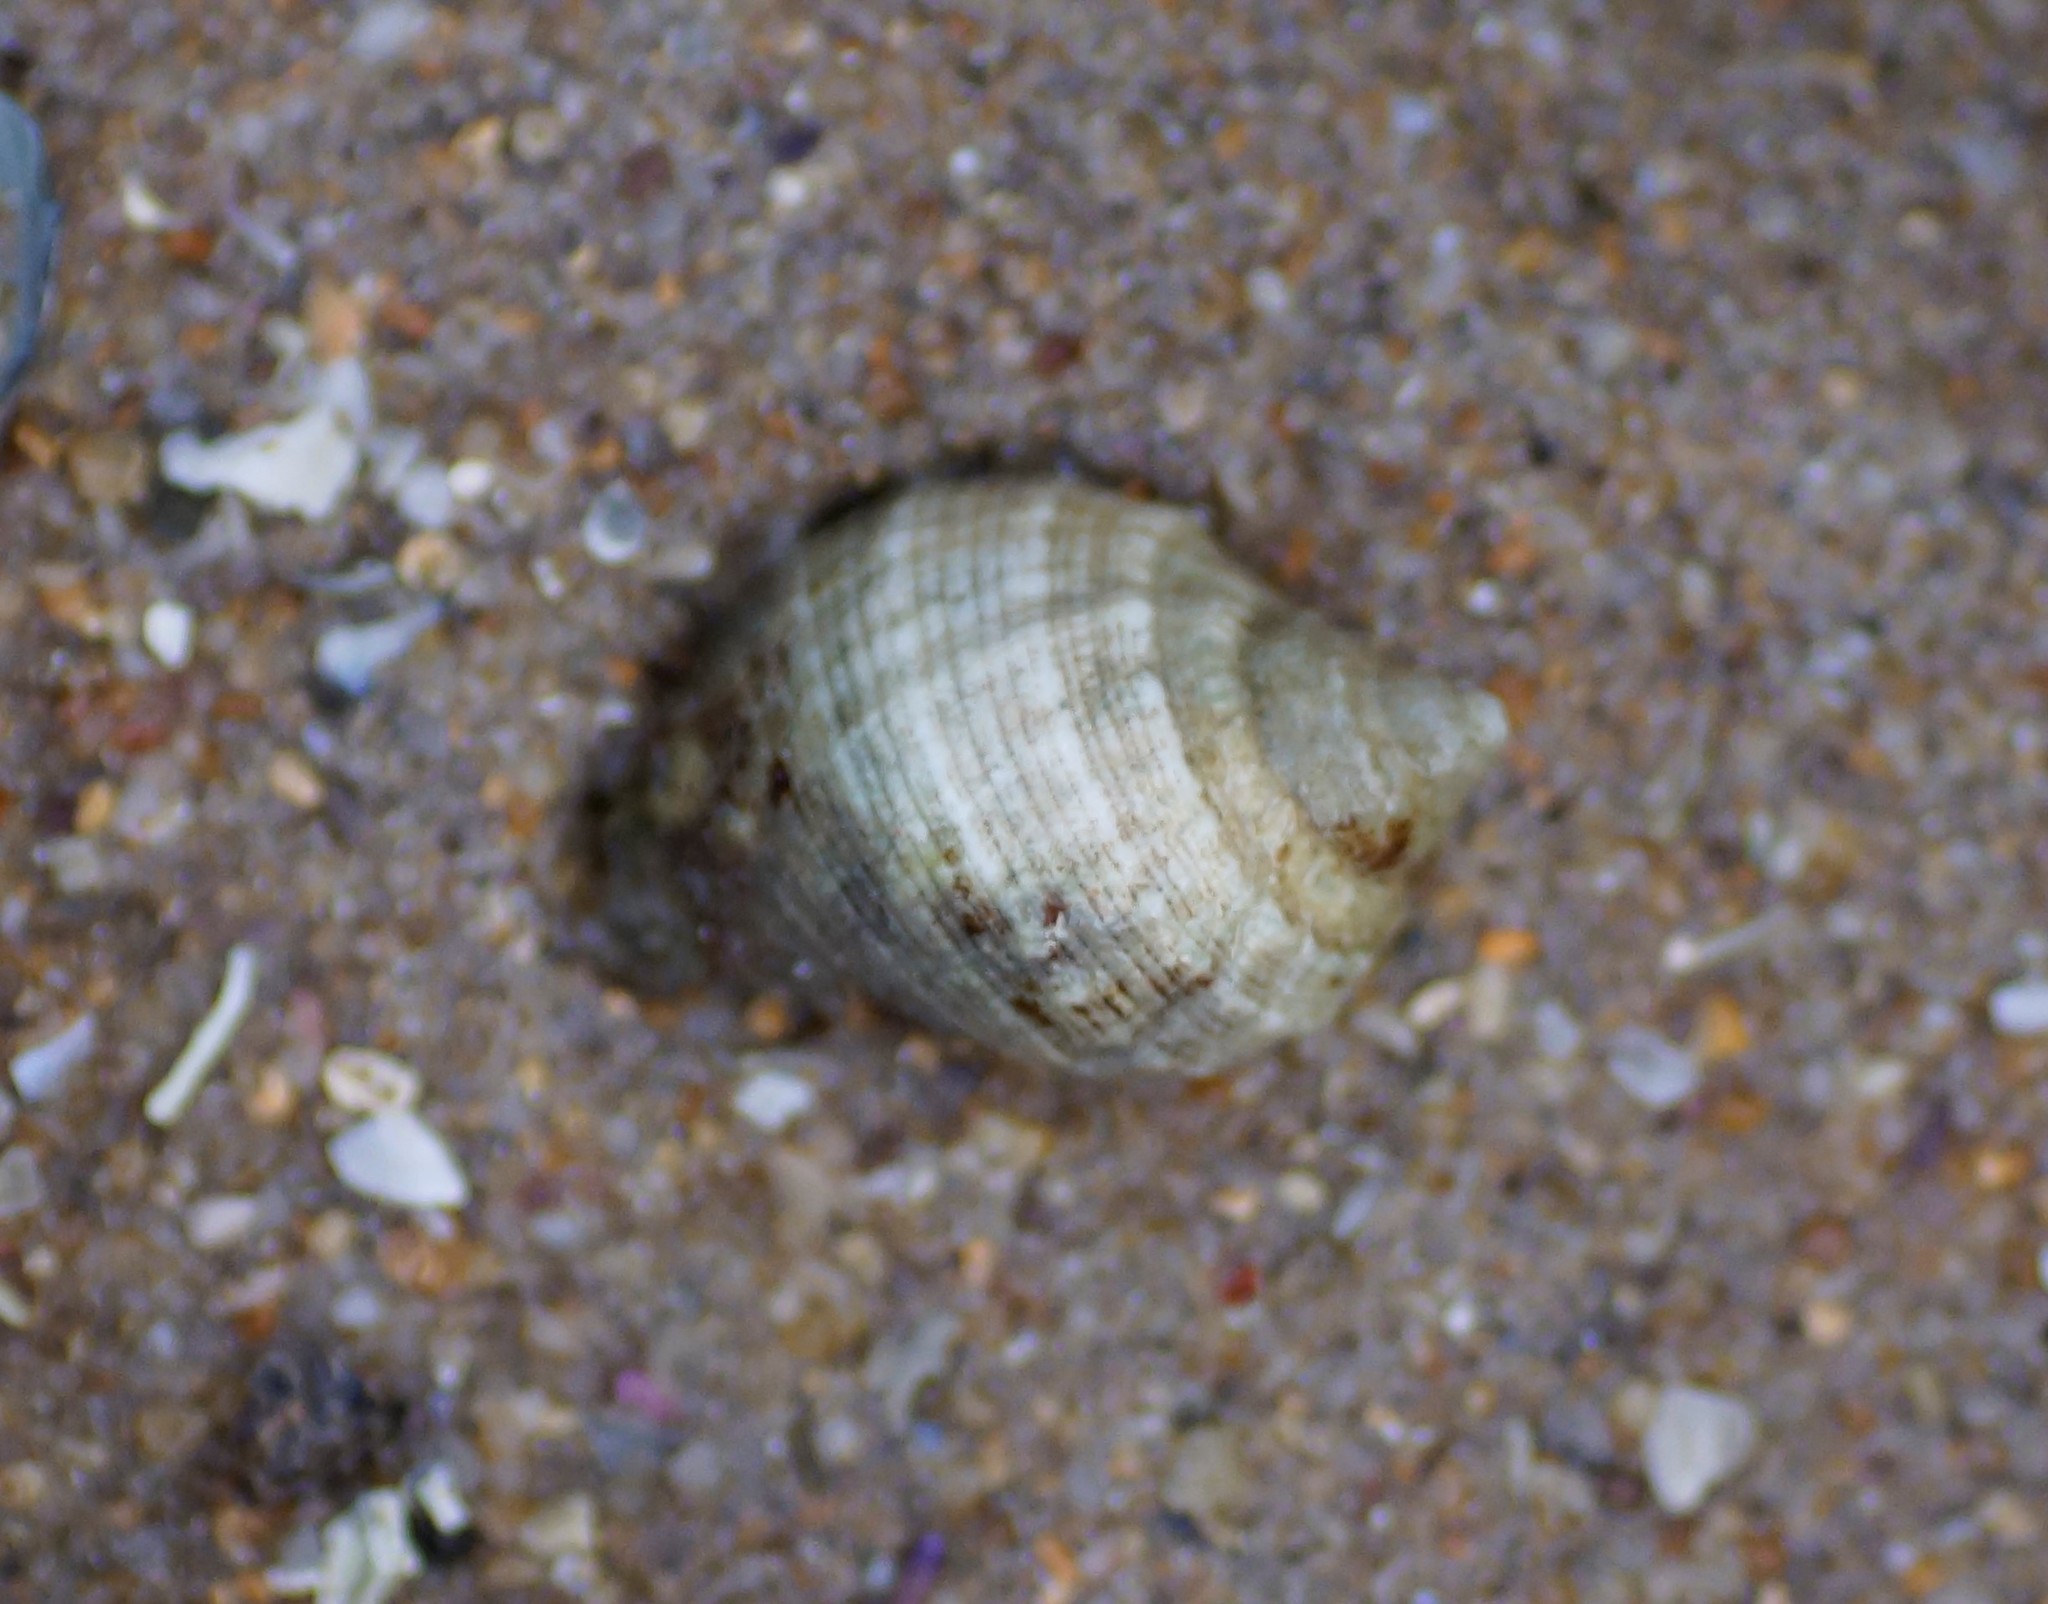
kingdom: Animalia
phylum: Mollusca
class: Gastropoda
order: Neogastropoda
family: Muricidae
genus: Dicathais
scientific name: Dicathais orbita
